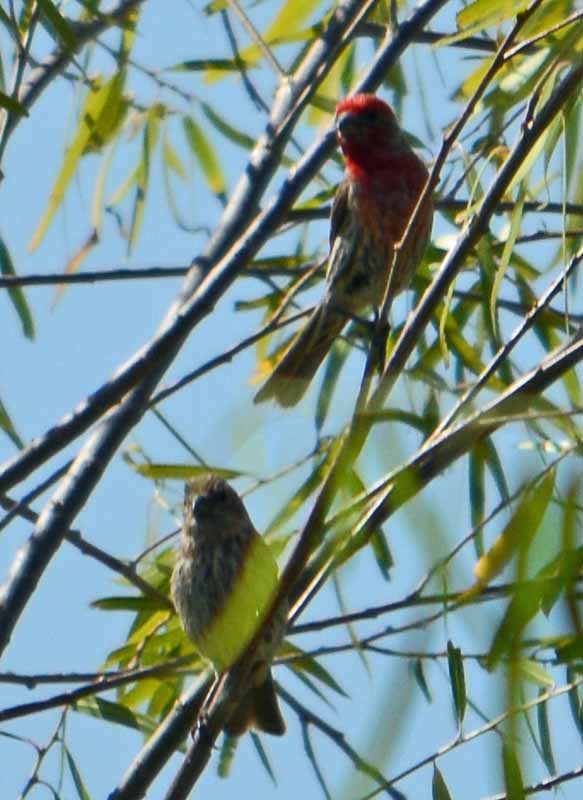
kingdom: Animalia
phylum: Chordata
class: Aves
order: Passeriformes
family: Fringillidae
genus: Haemorhous
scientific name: Haemorhous mexicanus
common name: House finch
